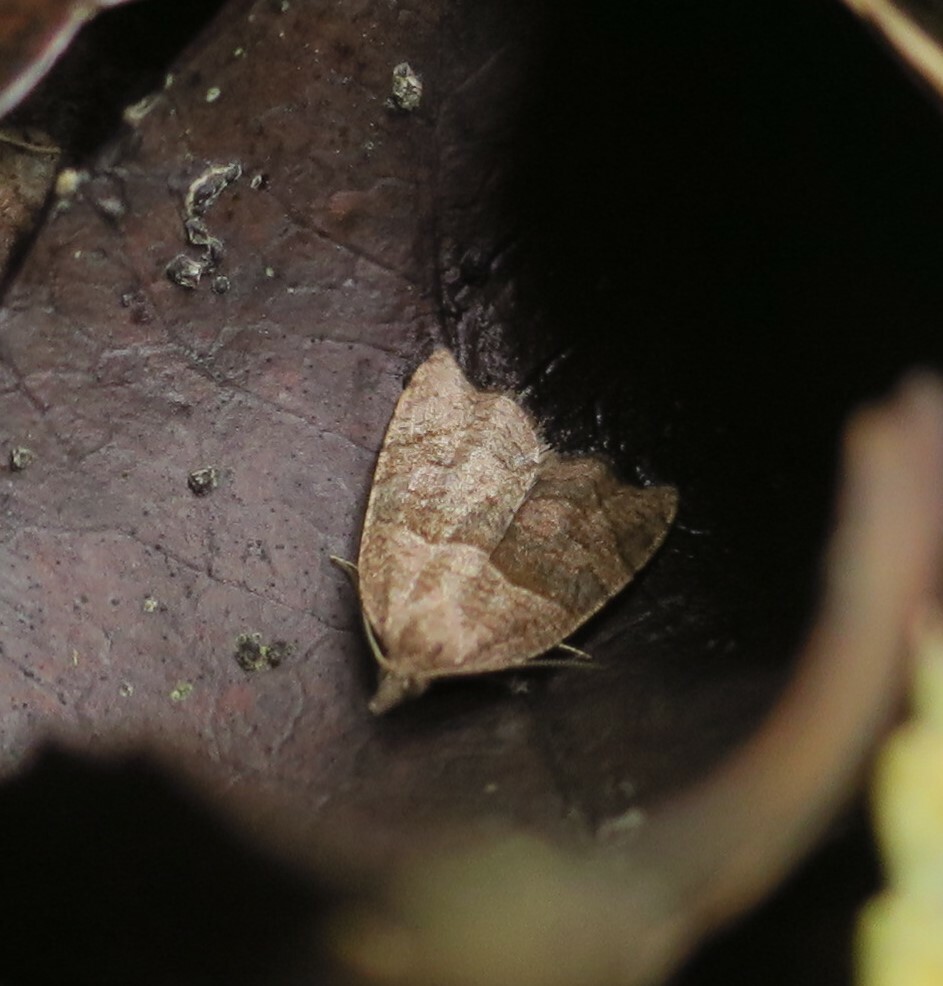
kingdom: Animalia
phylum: Arthropoda
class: Insecta
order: Lepidoptera
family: Tortricidae
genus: Cnephasia
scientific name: Cnephasia incertana
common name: Light grey tortrix
